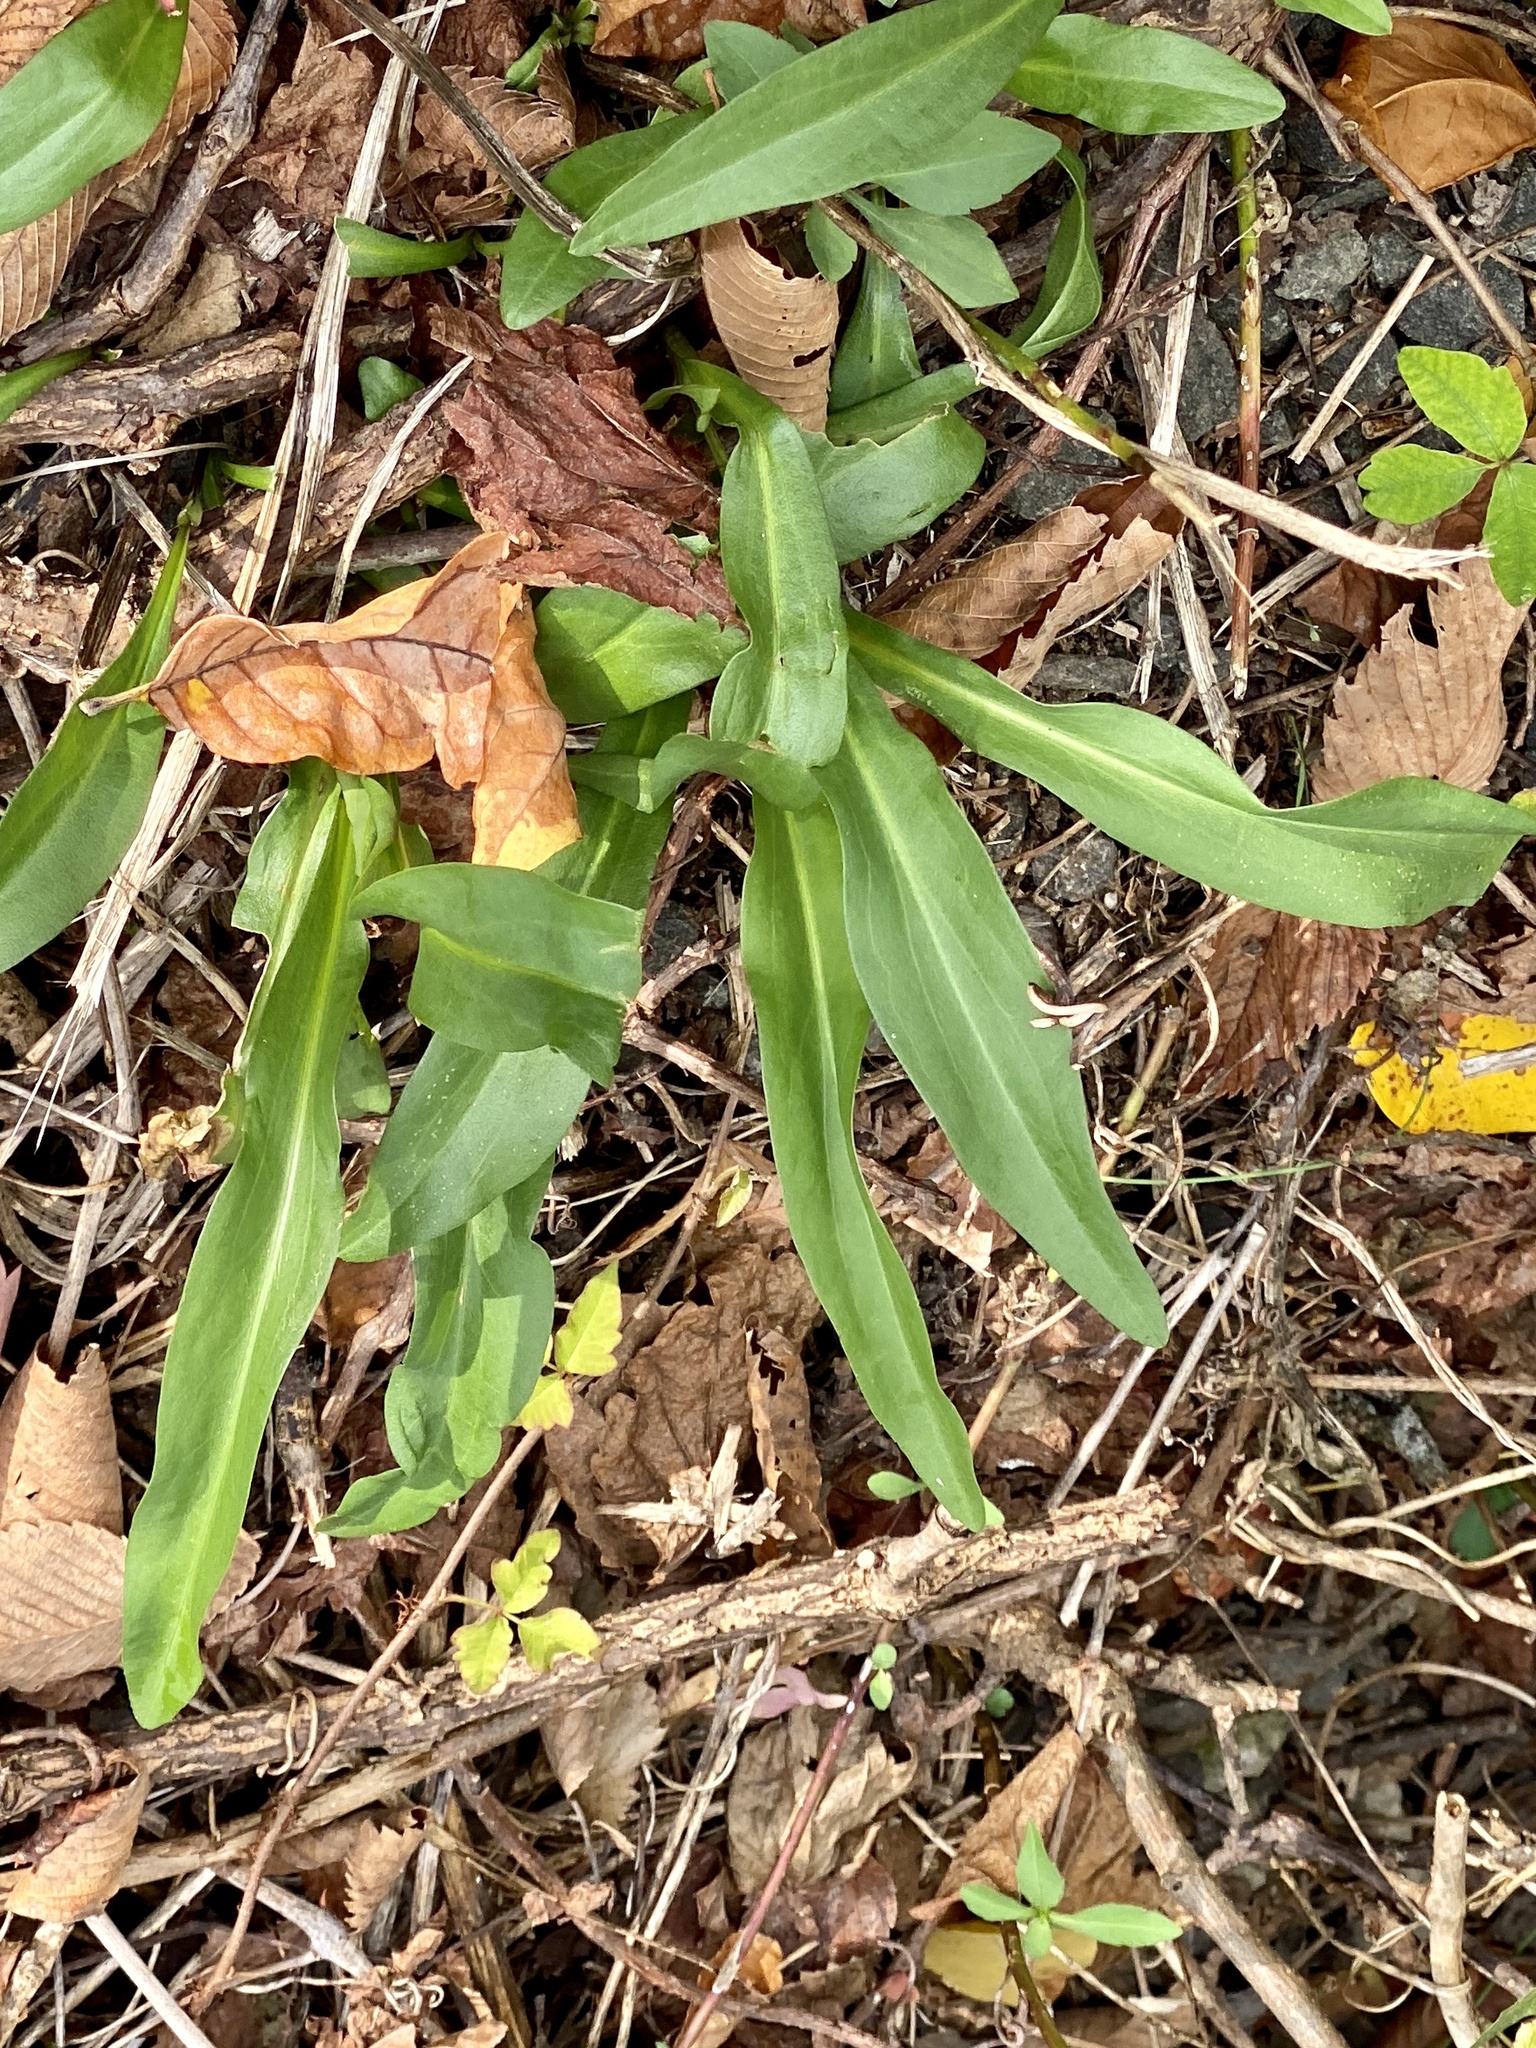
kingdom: Plantae
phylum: Tracheophyta
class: Magnoliopsida
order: Asterales
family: Asteraceae
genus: Solidago
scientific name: Solidago sempervirens
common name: Salt-marsh goldenrod
